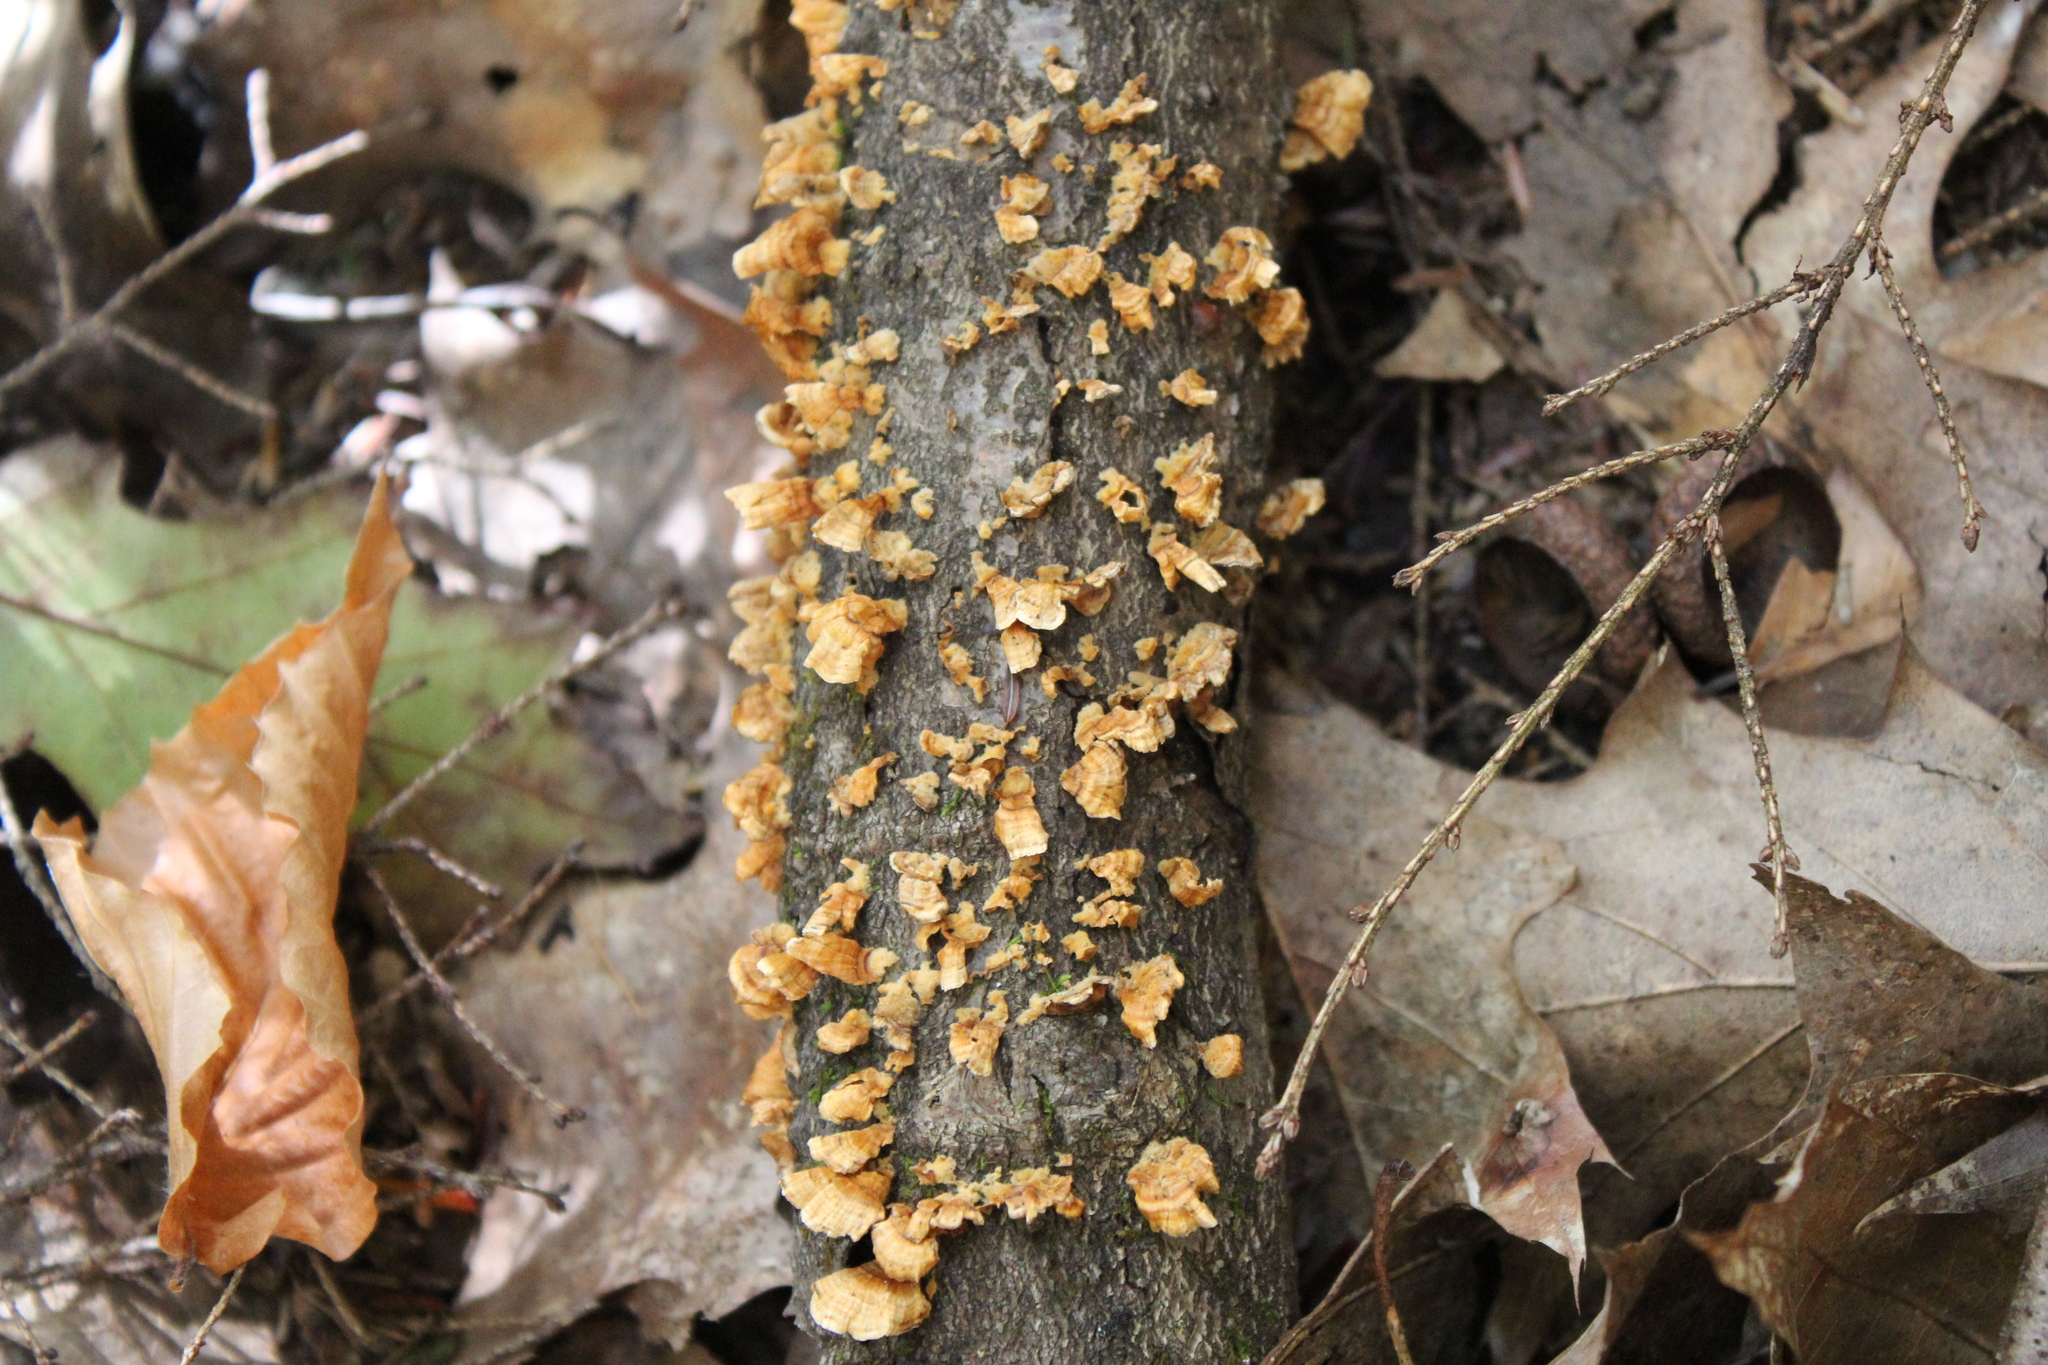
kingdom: Fungi
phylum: Basidiomycota
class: Agaricomycetes
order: Russulales
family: Stereaceae
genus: Stereum
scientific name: Stereum complicatum
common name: Crowded parchment
